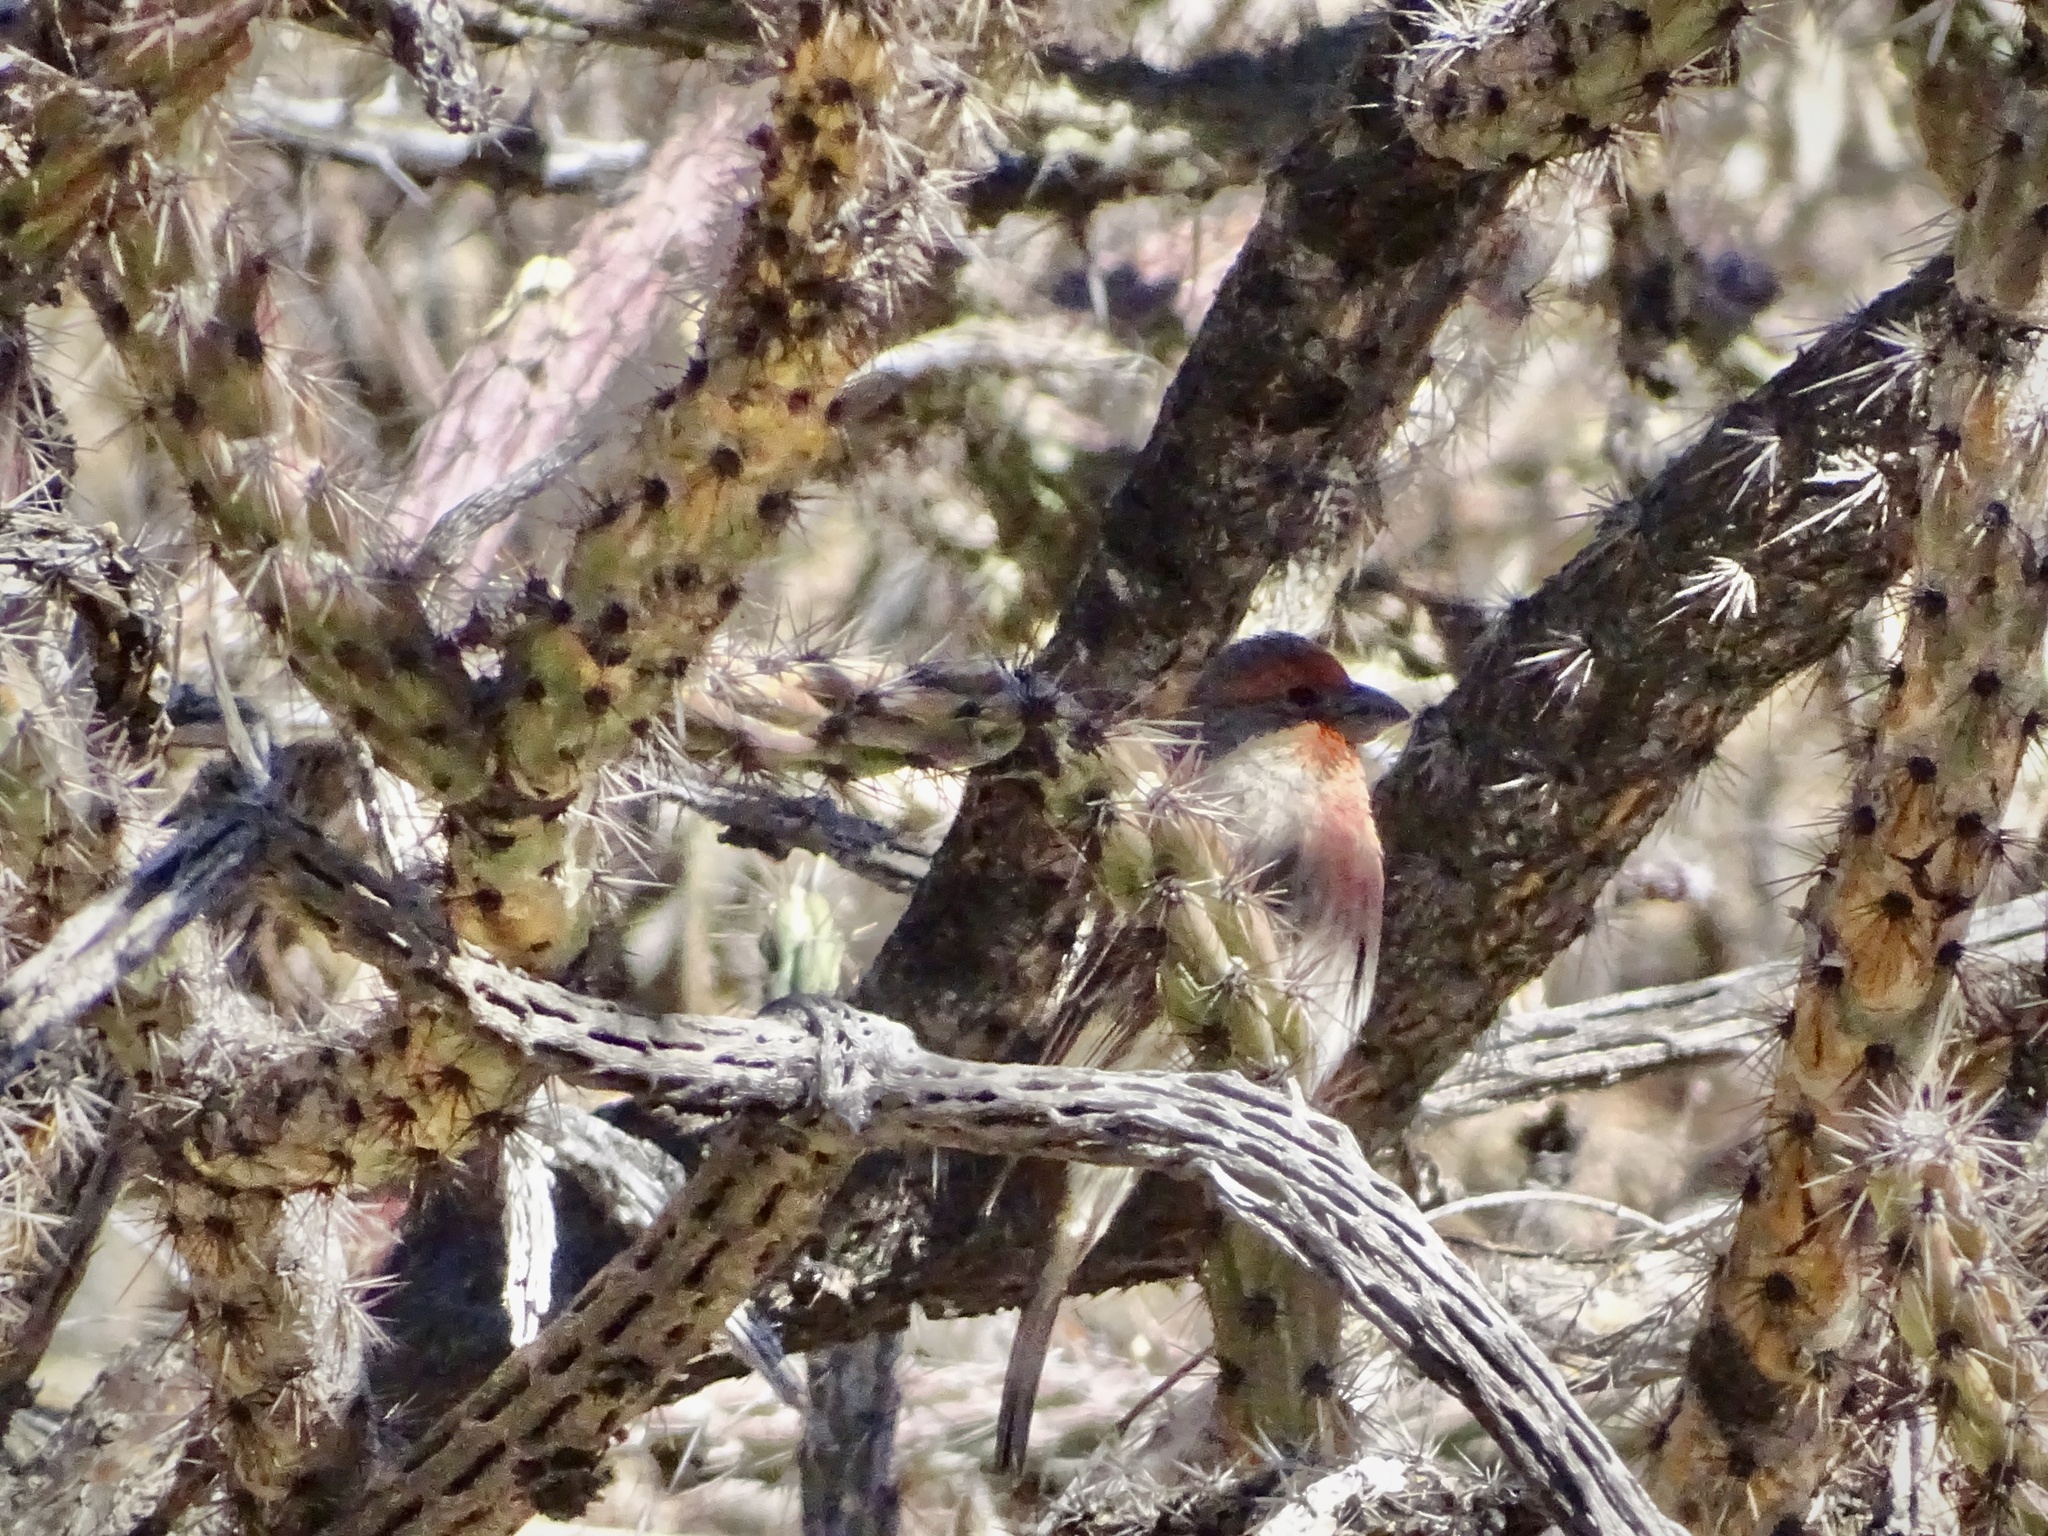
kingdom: Animalia
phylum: Chordata
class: Aves
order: Passeriformes
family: Fringillidae
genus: Haemorhous
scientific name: Haemorhous mexicanus
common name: House finch
